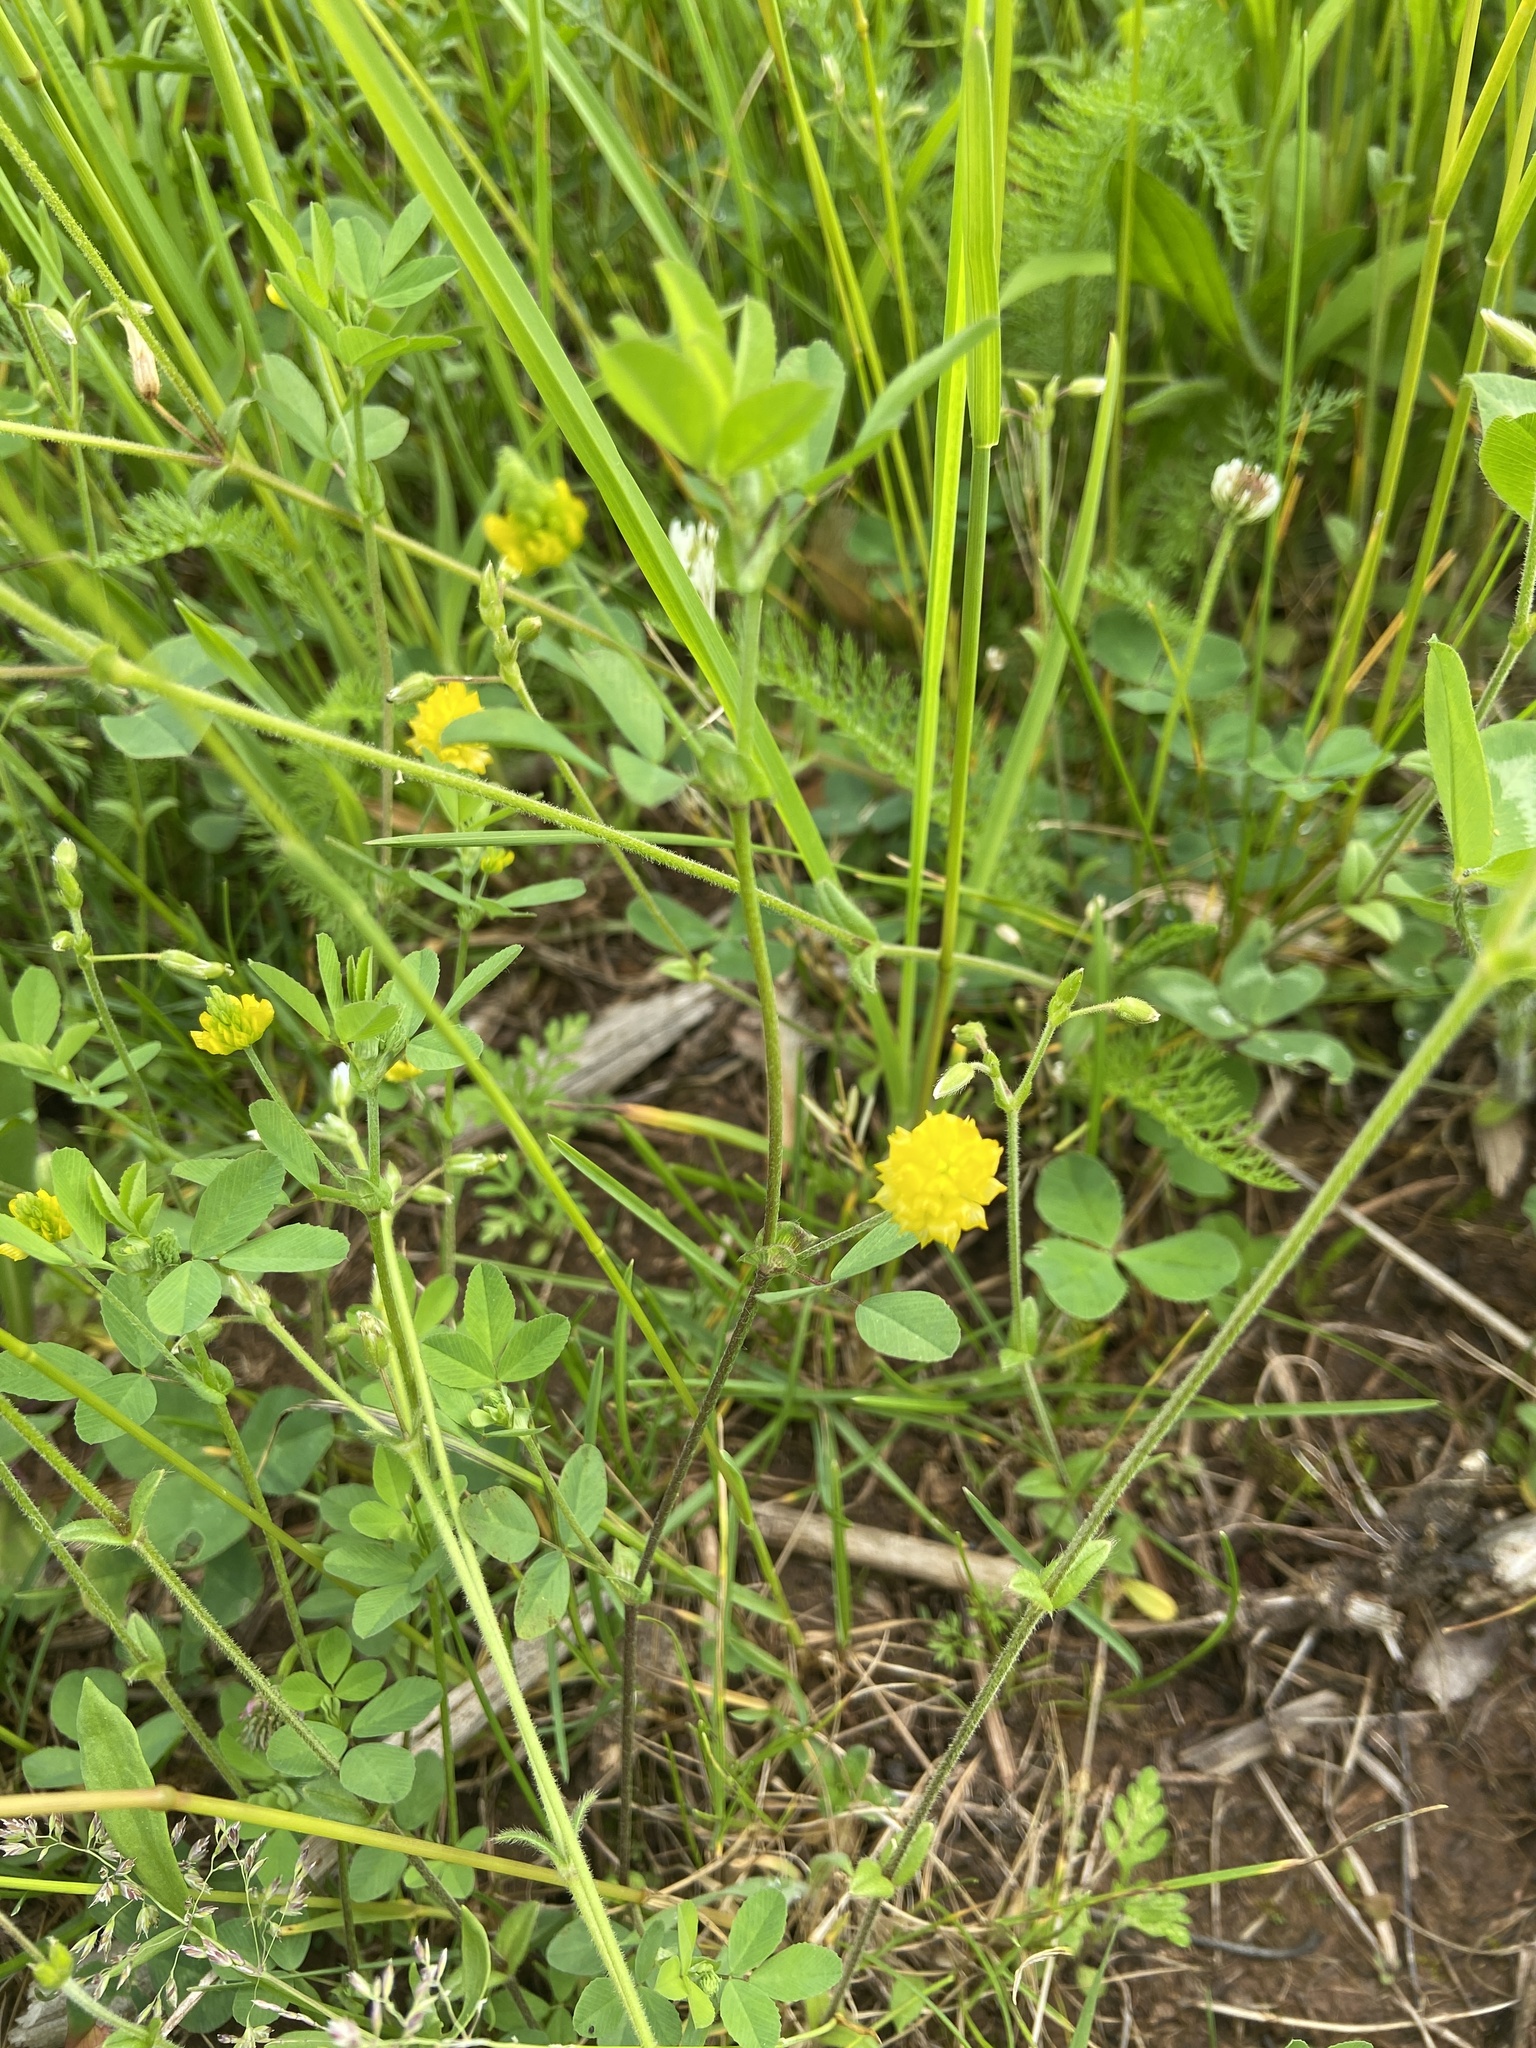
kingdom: Plantae
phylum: Tracheophyta
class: Magnoliopsida
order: Fabales
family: Fabaceae
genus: Trifolium
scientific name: Trifolium campestre
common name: Field clover
